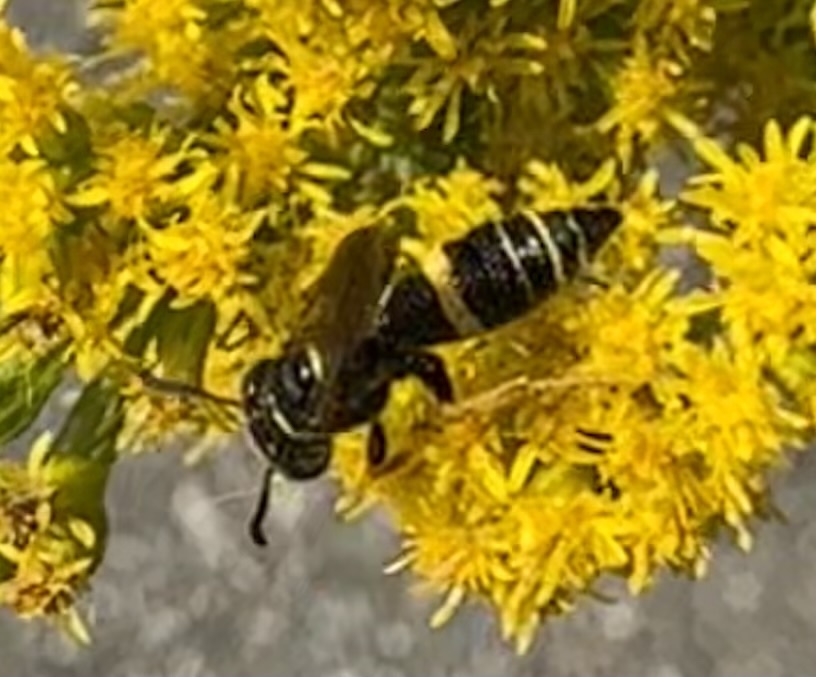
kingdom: Animalia
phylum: Arthropoda
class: Insecta
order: Hymenoptera
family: Crabronidae
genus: Philanthus
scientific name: Philanthus gibbosus
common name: Humped beewolf
